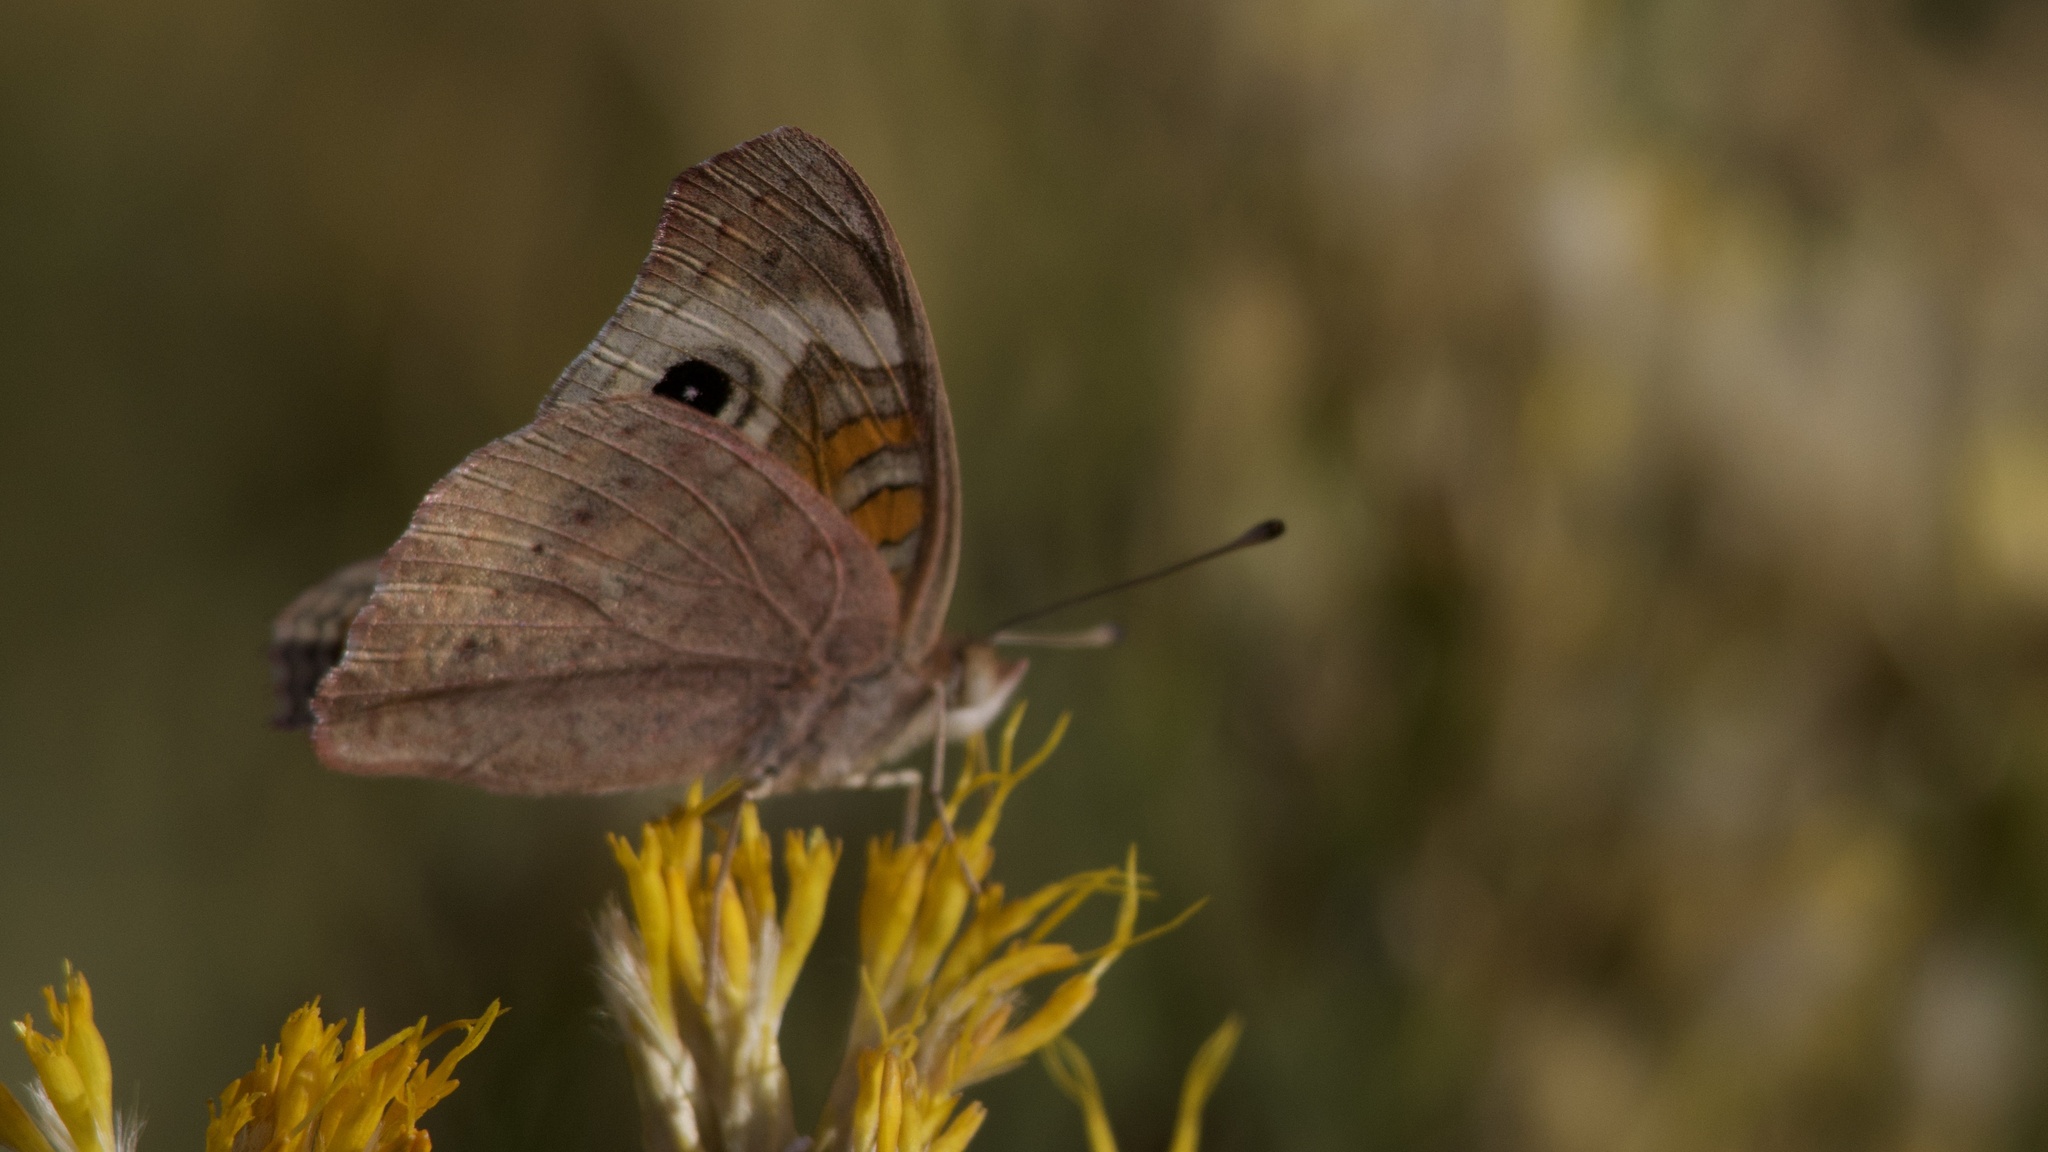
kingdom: Animalia
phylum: Arthropoda
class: Insecta
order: Lepidoptera
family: Nymphalidae
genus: Junonia
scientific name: Junonia grisea
